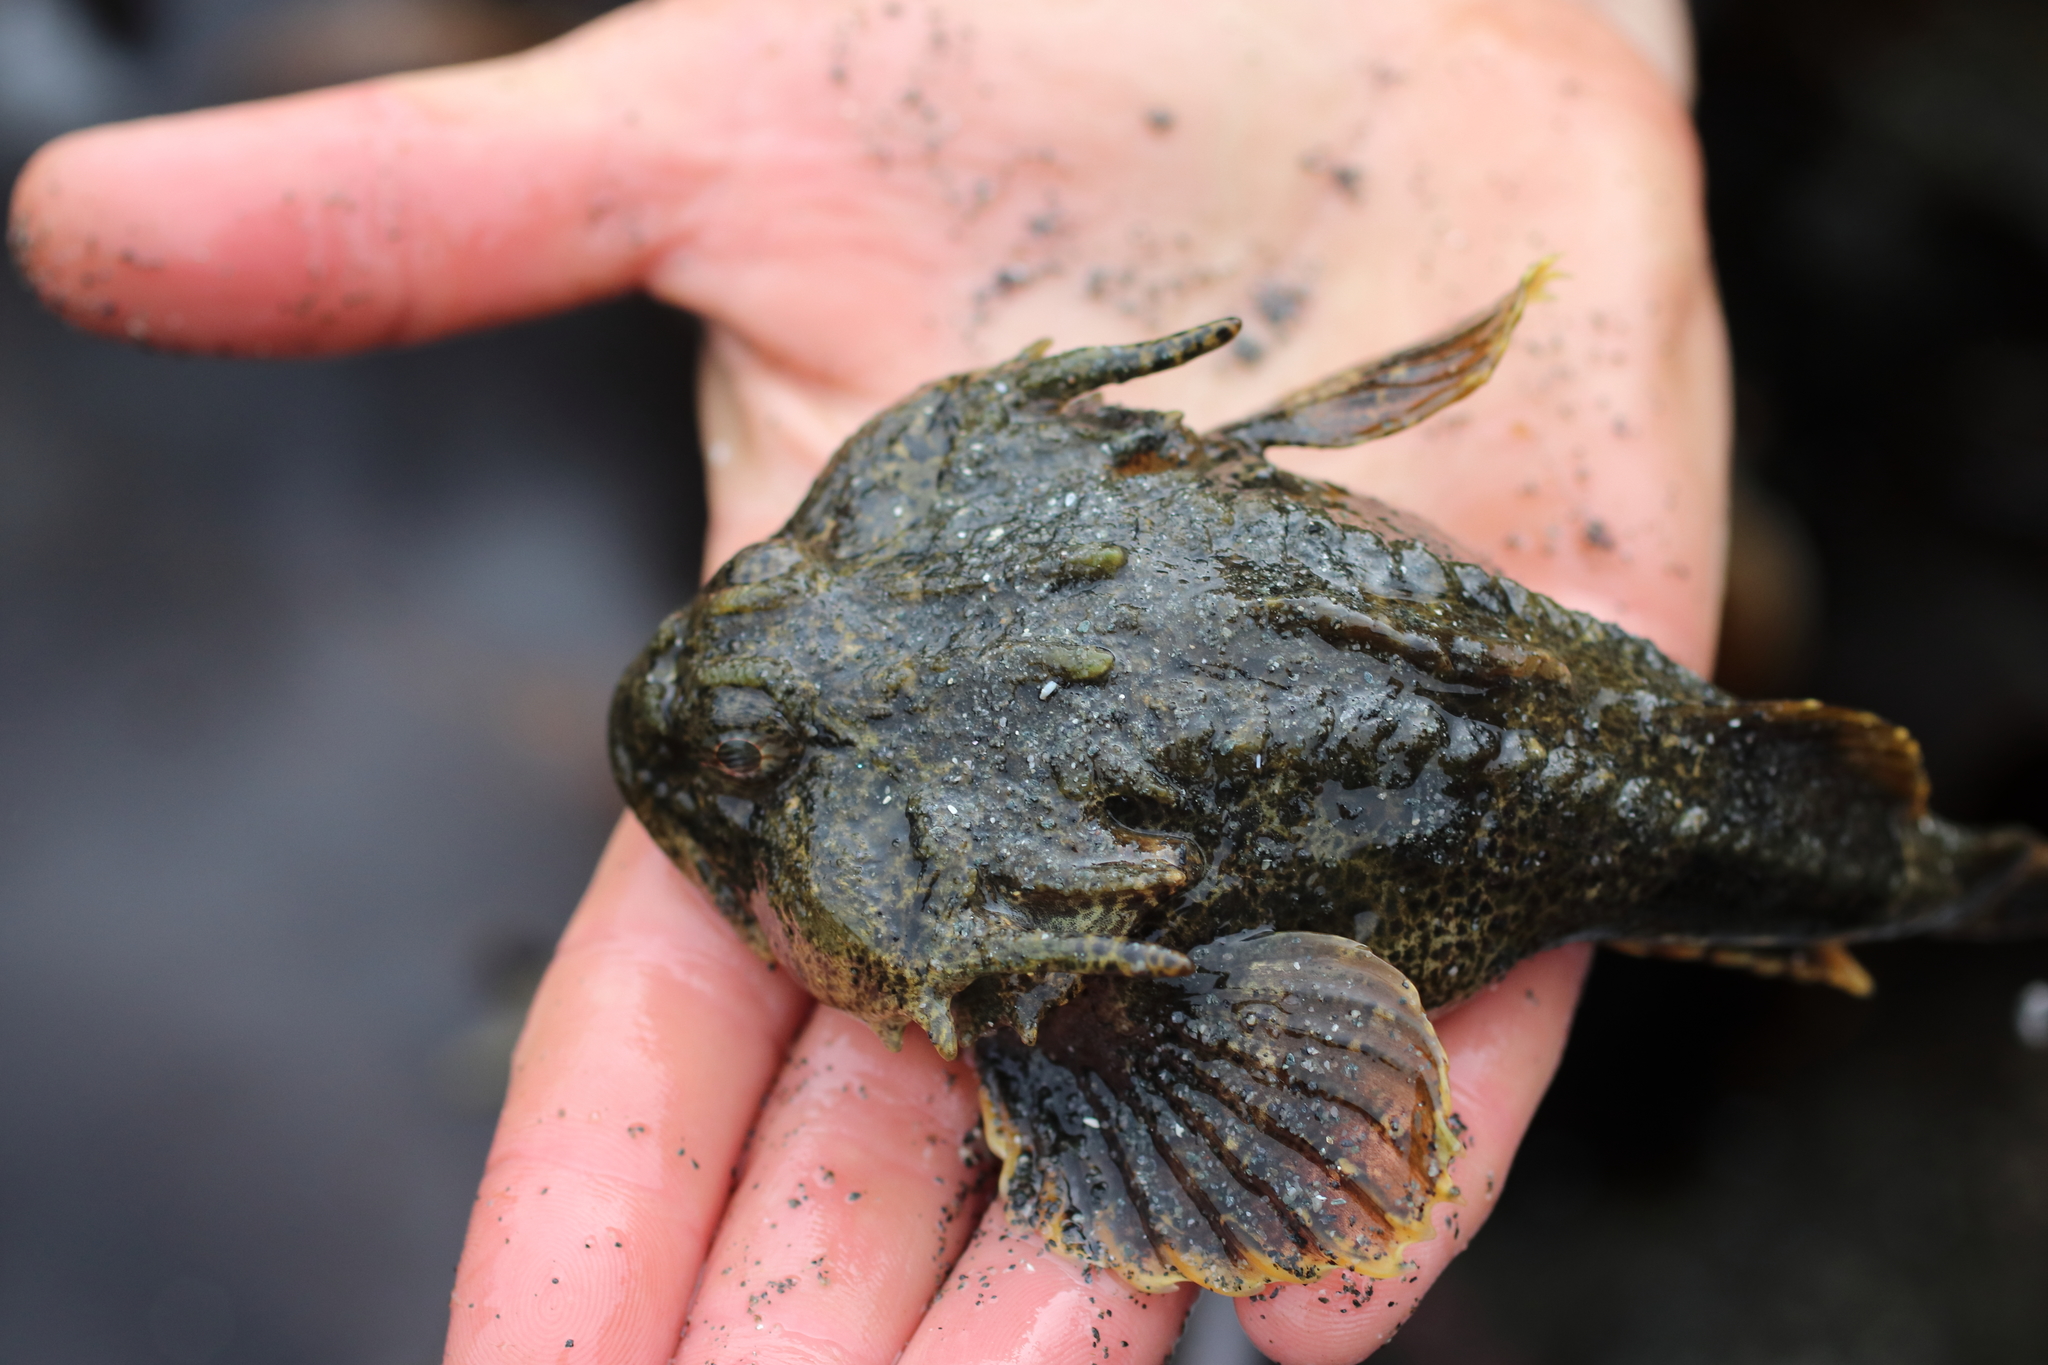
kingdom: Animalia
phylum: Chordata
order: Scorpaeniformes
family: Cottidae
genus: Enophrys
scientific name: Enophrys bison
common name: Buffalo sculpin
